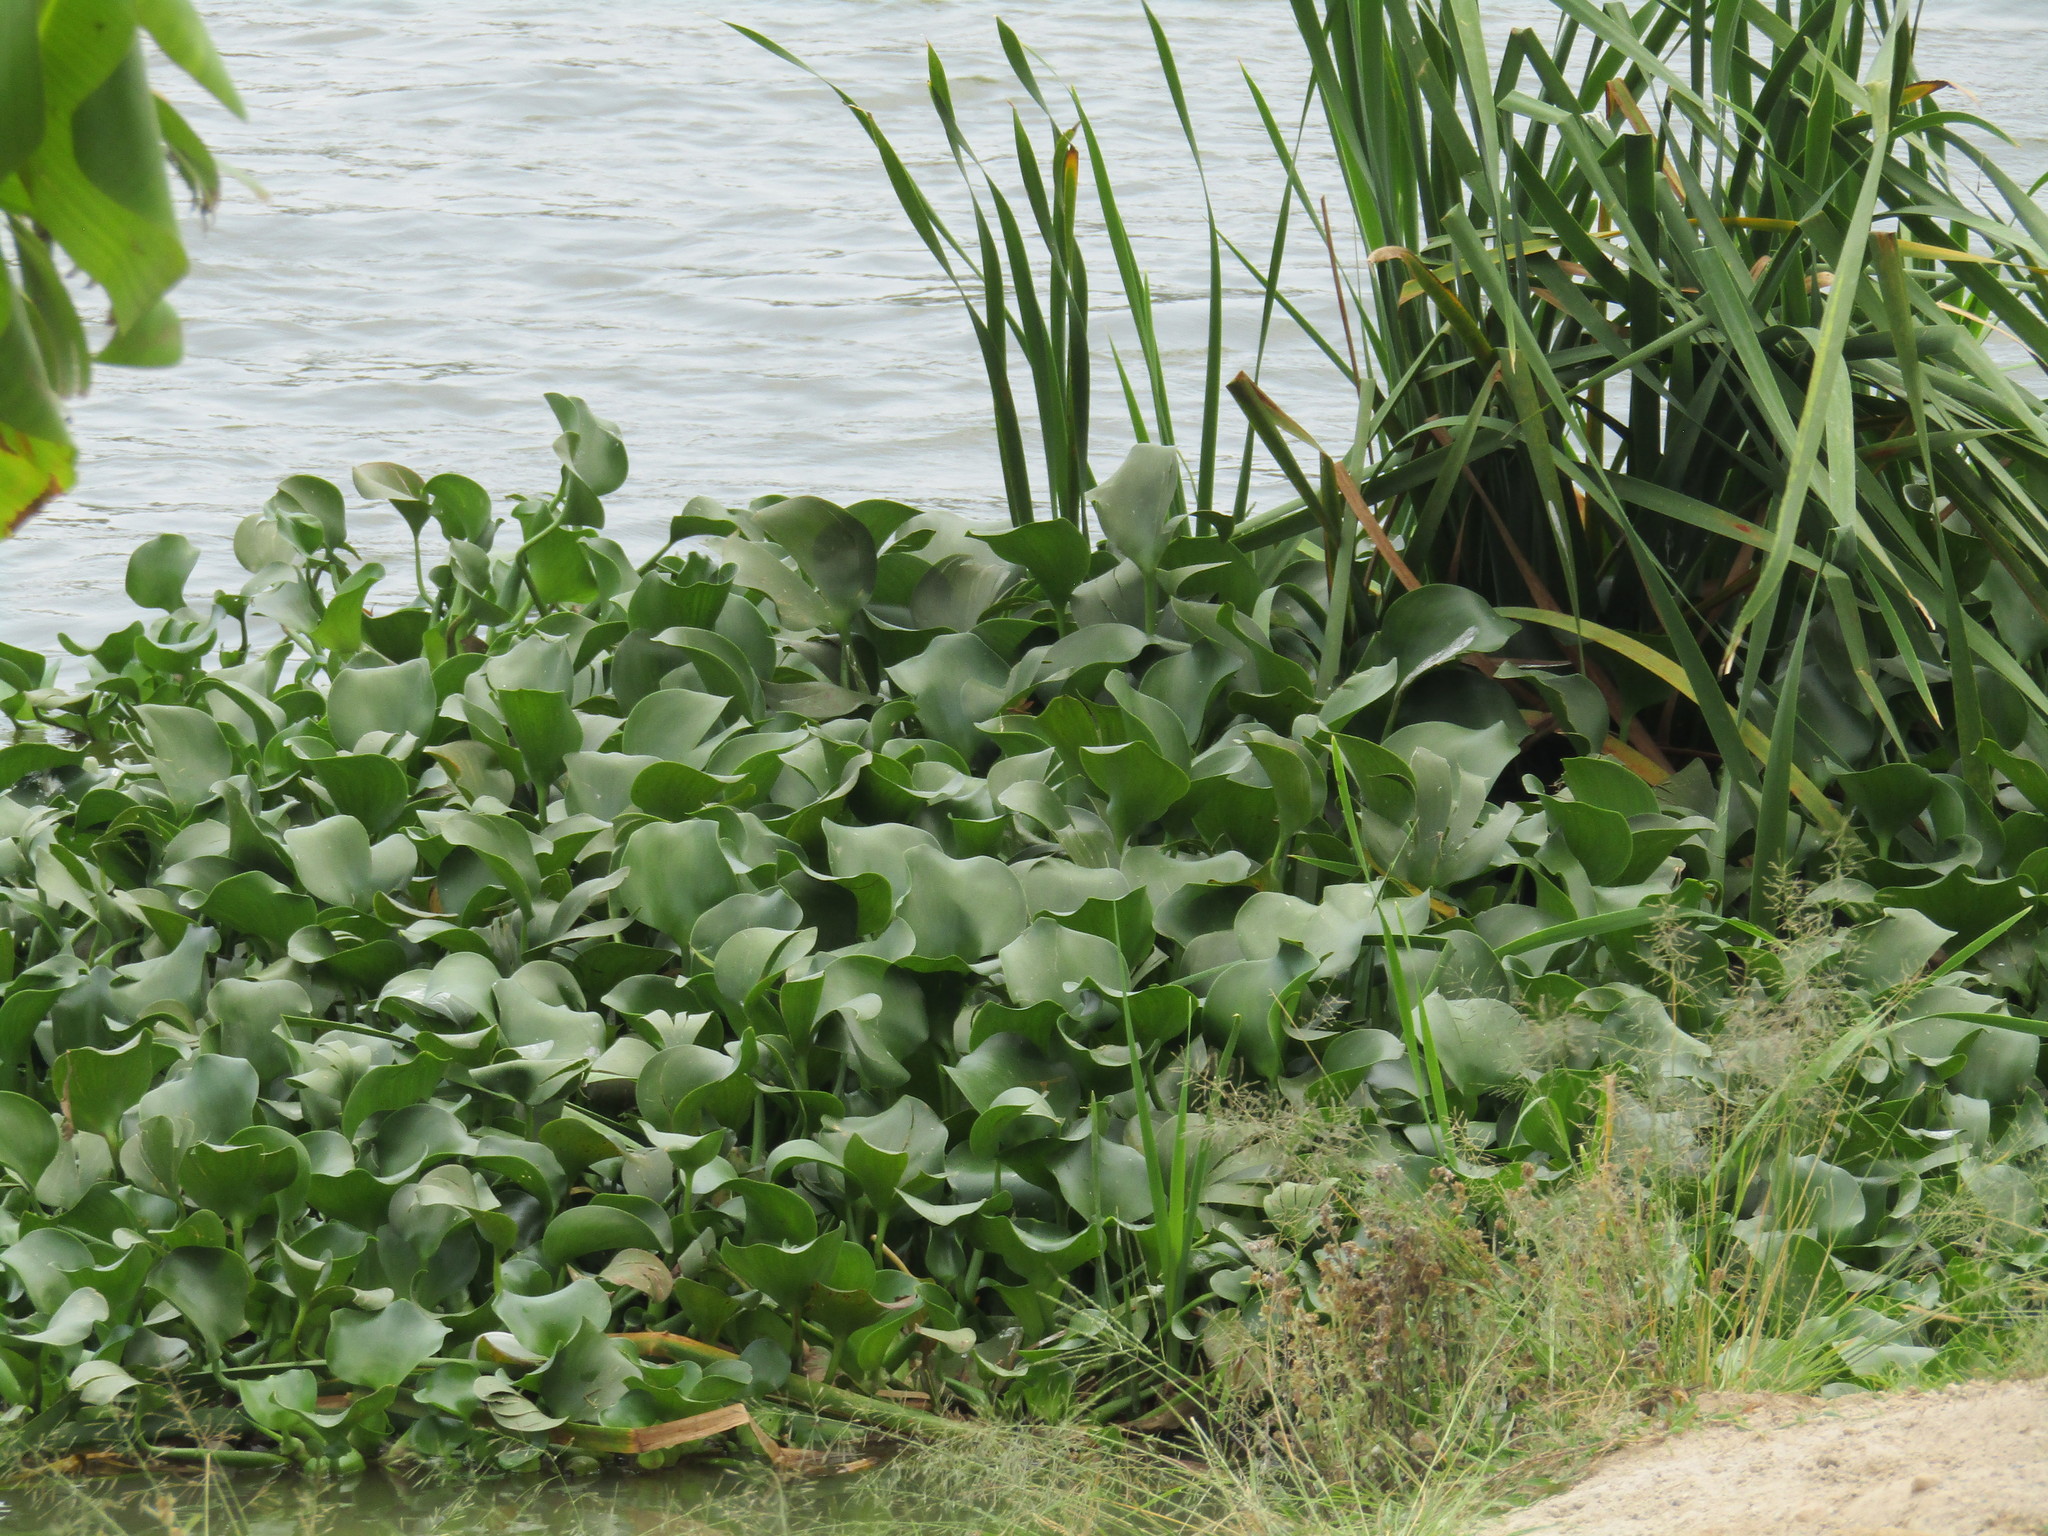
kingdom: Plantae
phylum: Tracheophyta
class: Liliopsida
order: Commelinales
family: Pontederiaceae
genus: Pontederia
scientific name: Pontederia crassipes
